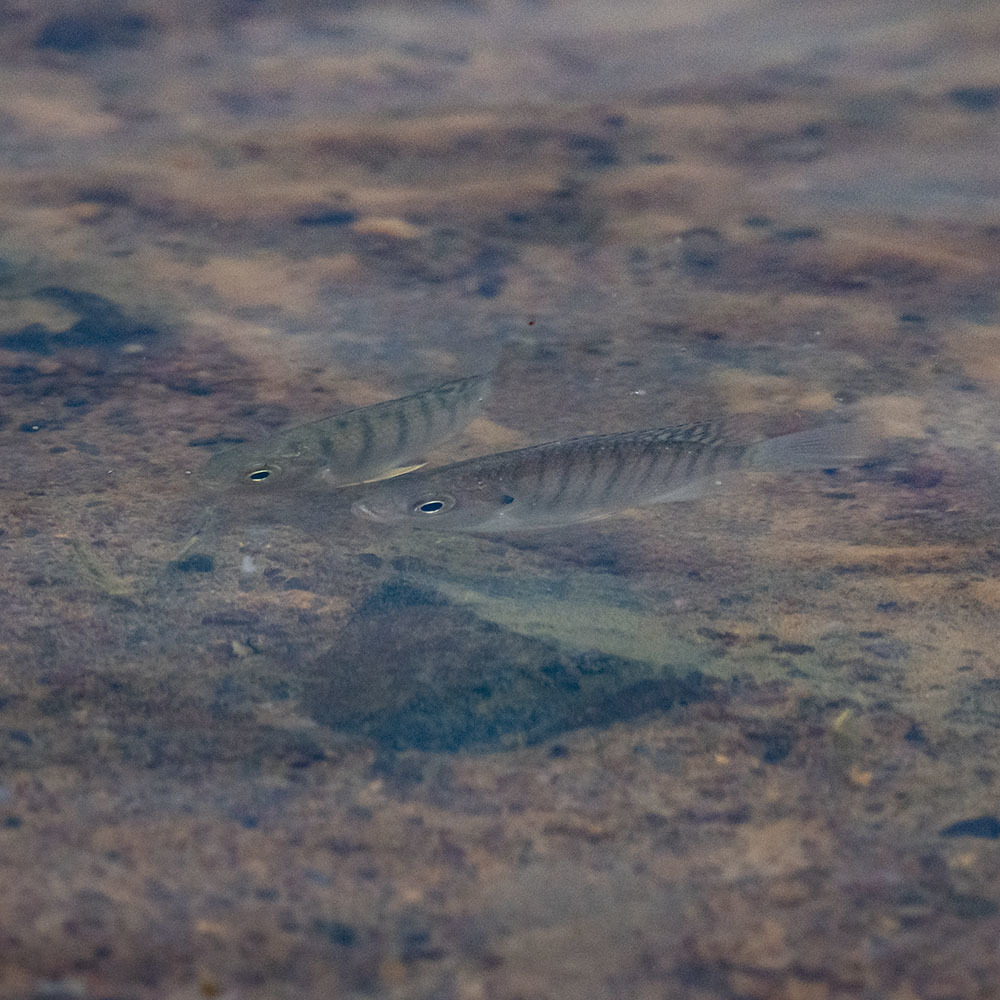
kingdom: Animalia
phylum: Chordata
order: Perciformes
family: Cichlidae
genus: Oreochromis
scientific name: Oreochromis niloticus
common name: Nile tilapia
